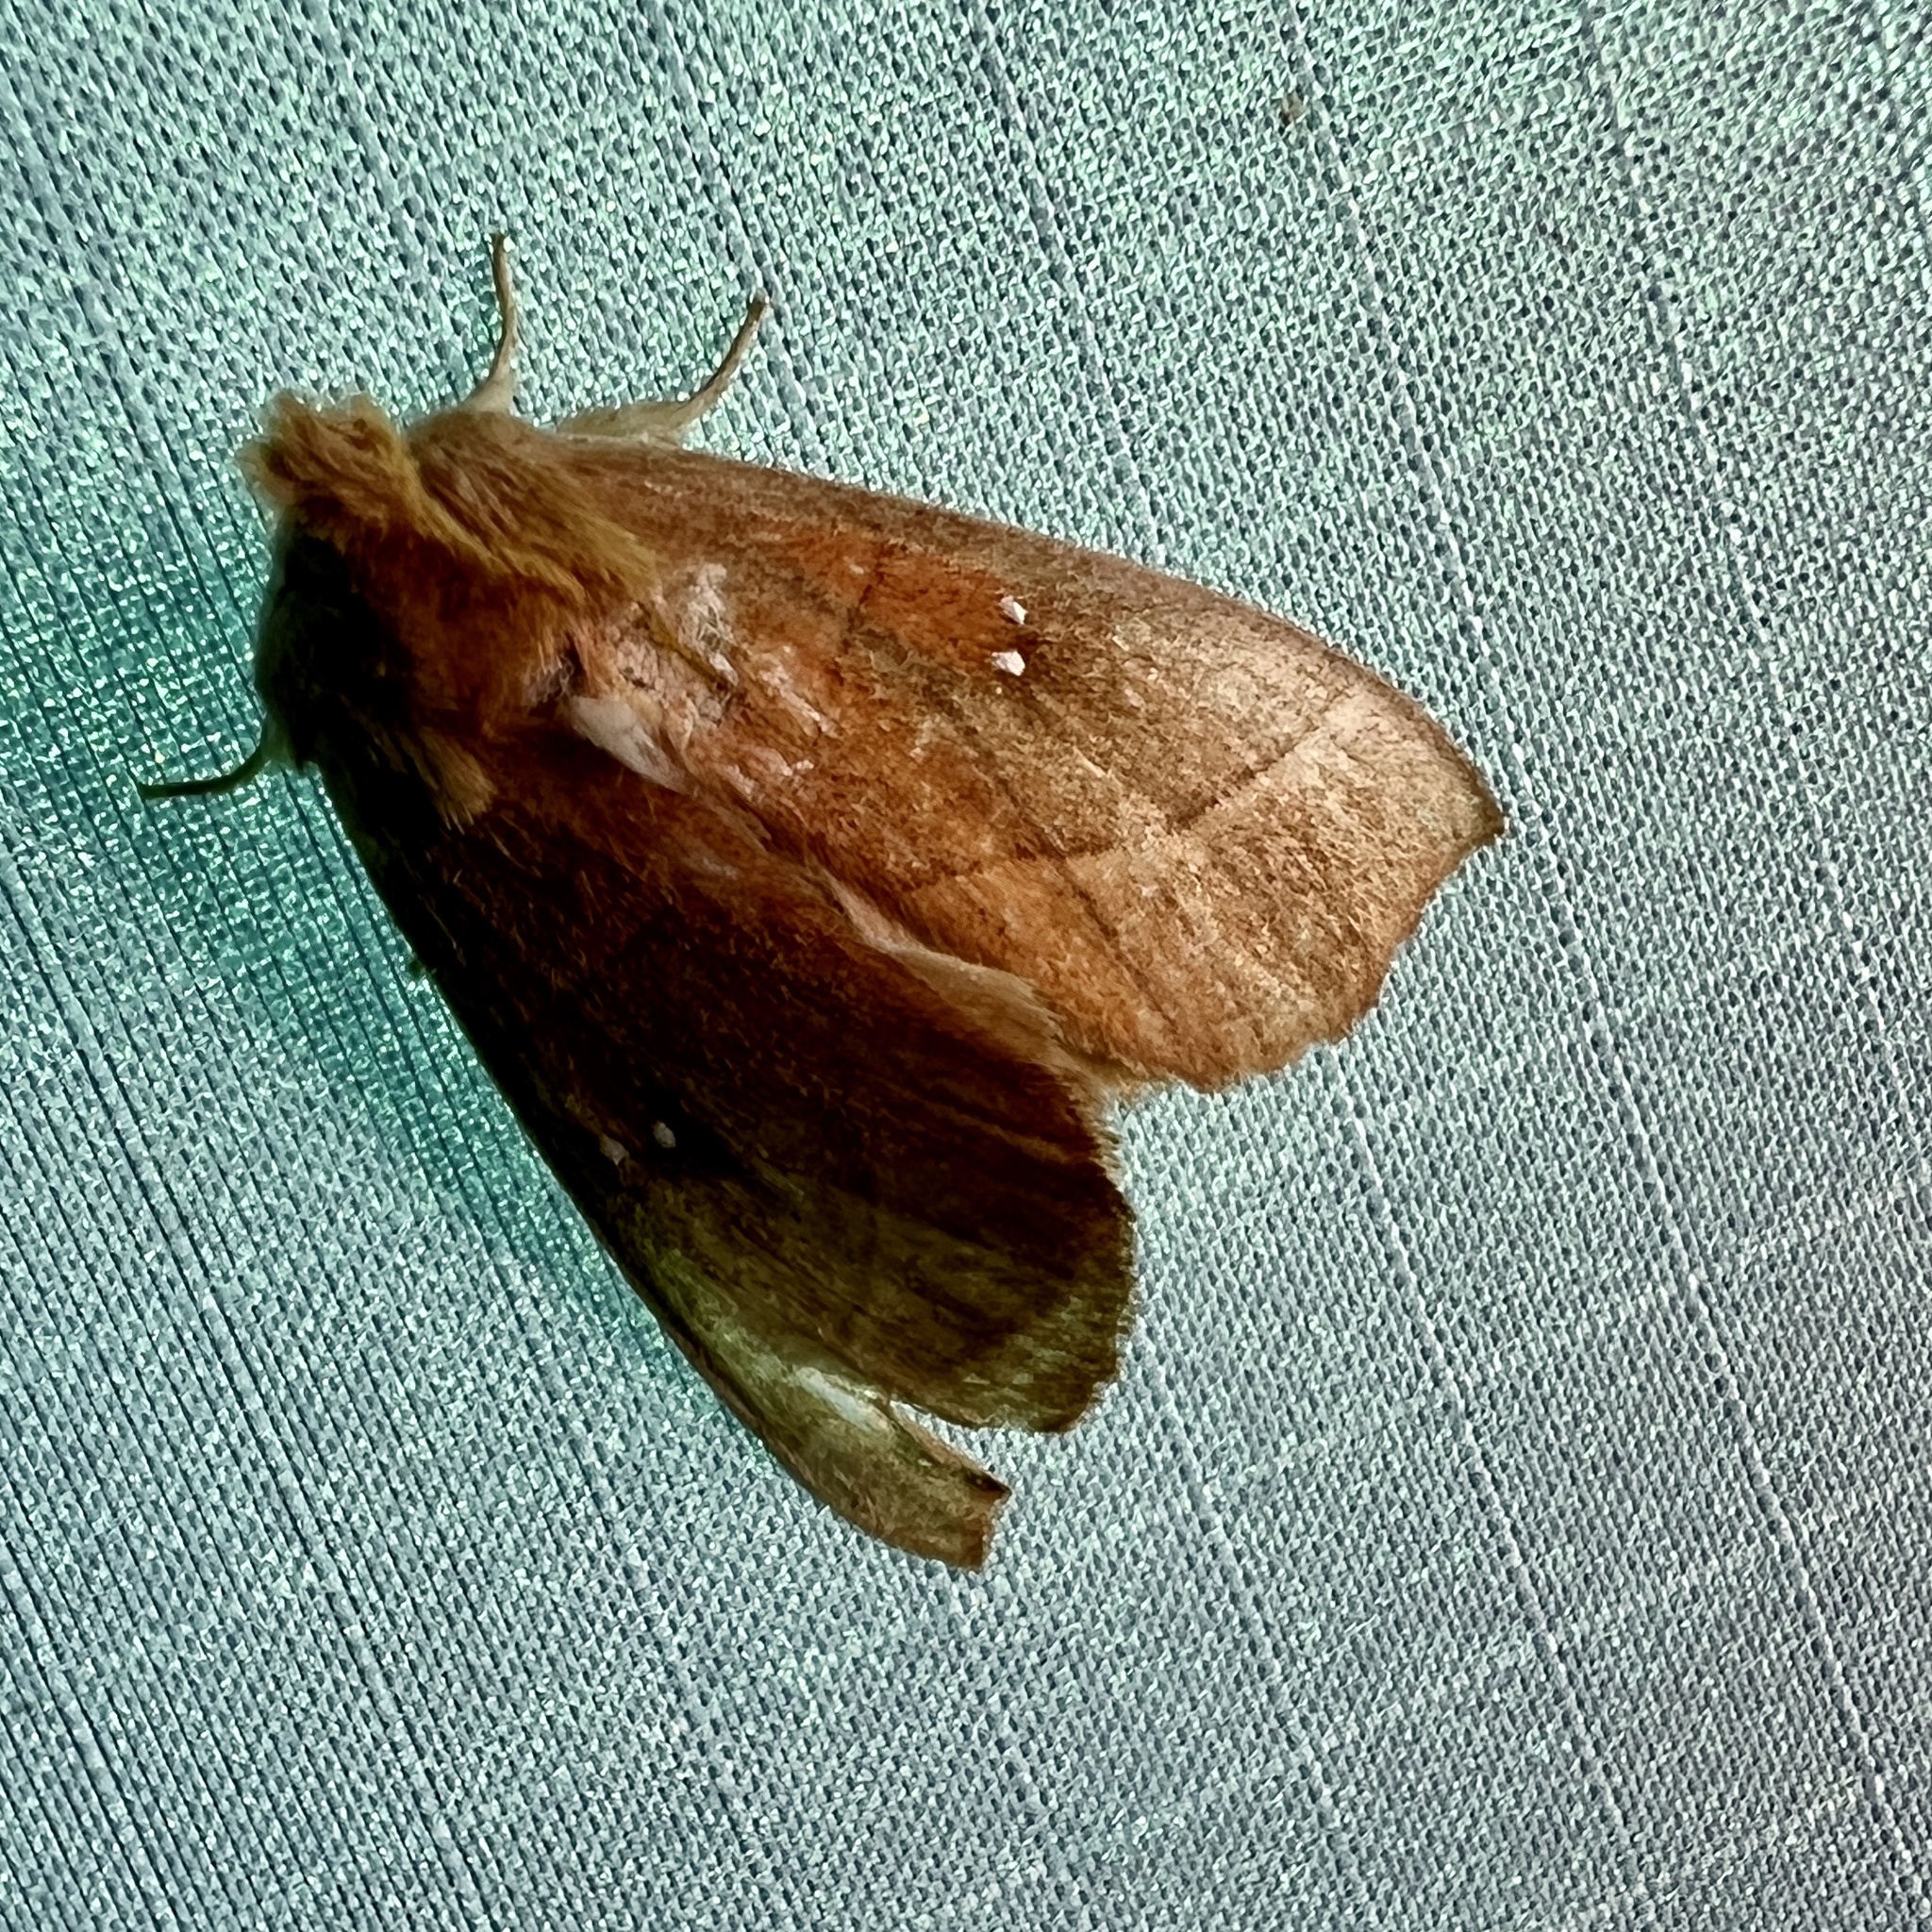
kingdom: Animalia
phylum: Arthropoda
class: Insecta
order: Lepidoptera
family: Notodontidae
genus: Nadata
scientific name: Nadata gibbosa
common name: White-dotted prominent
